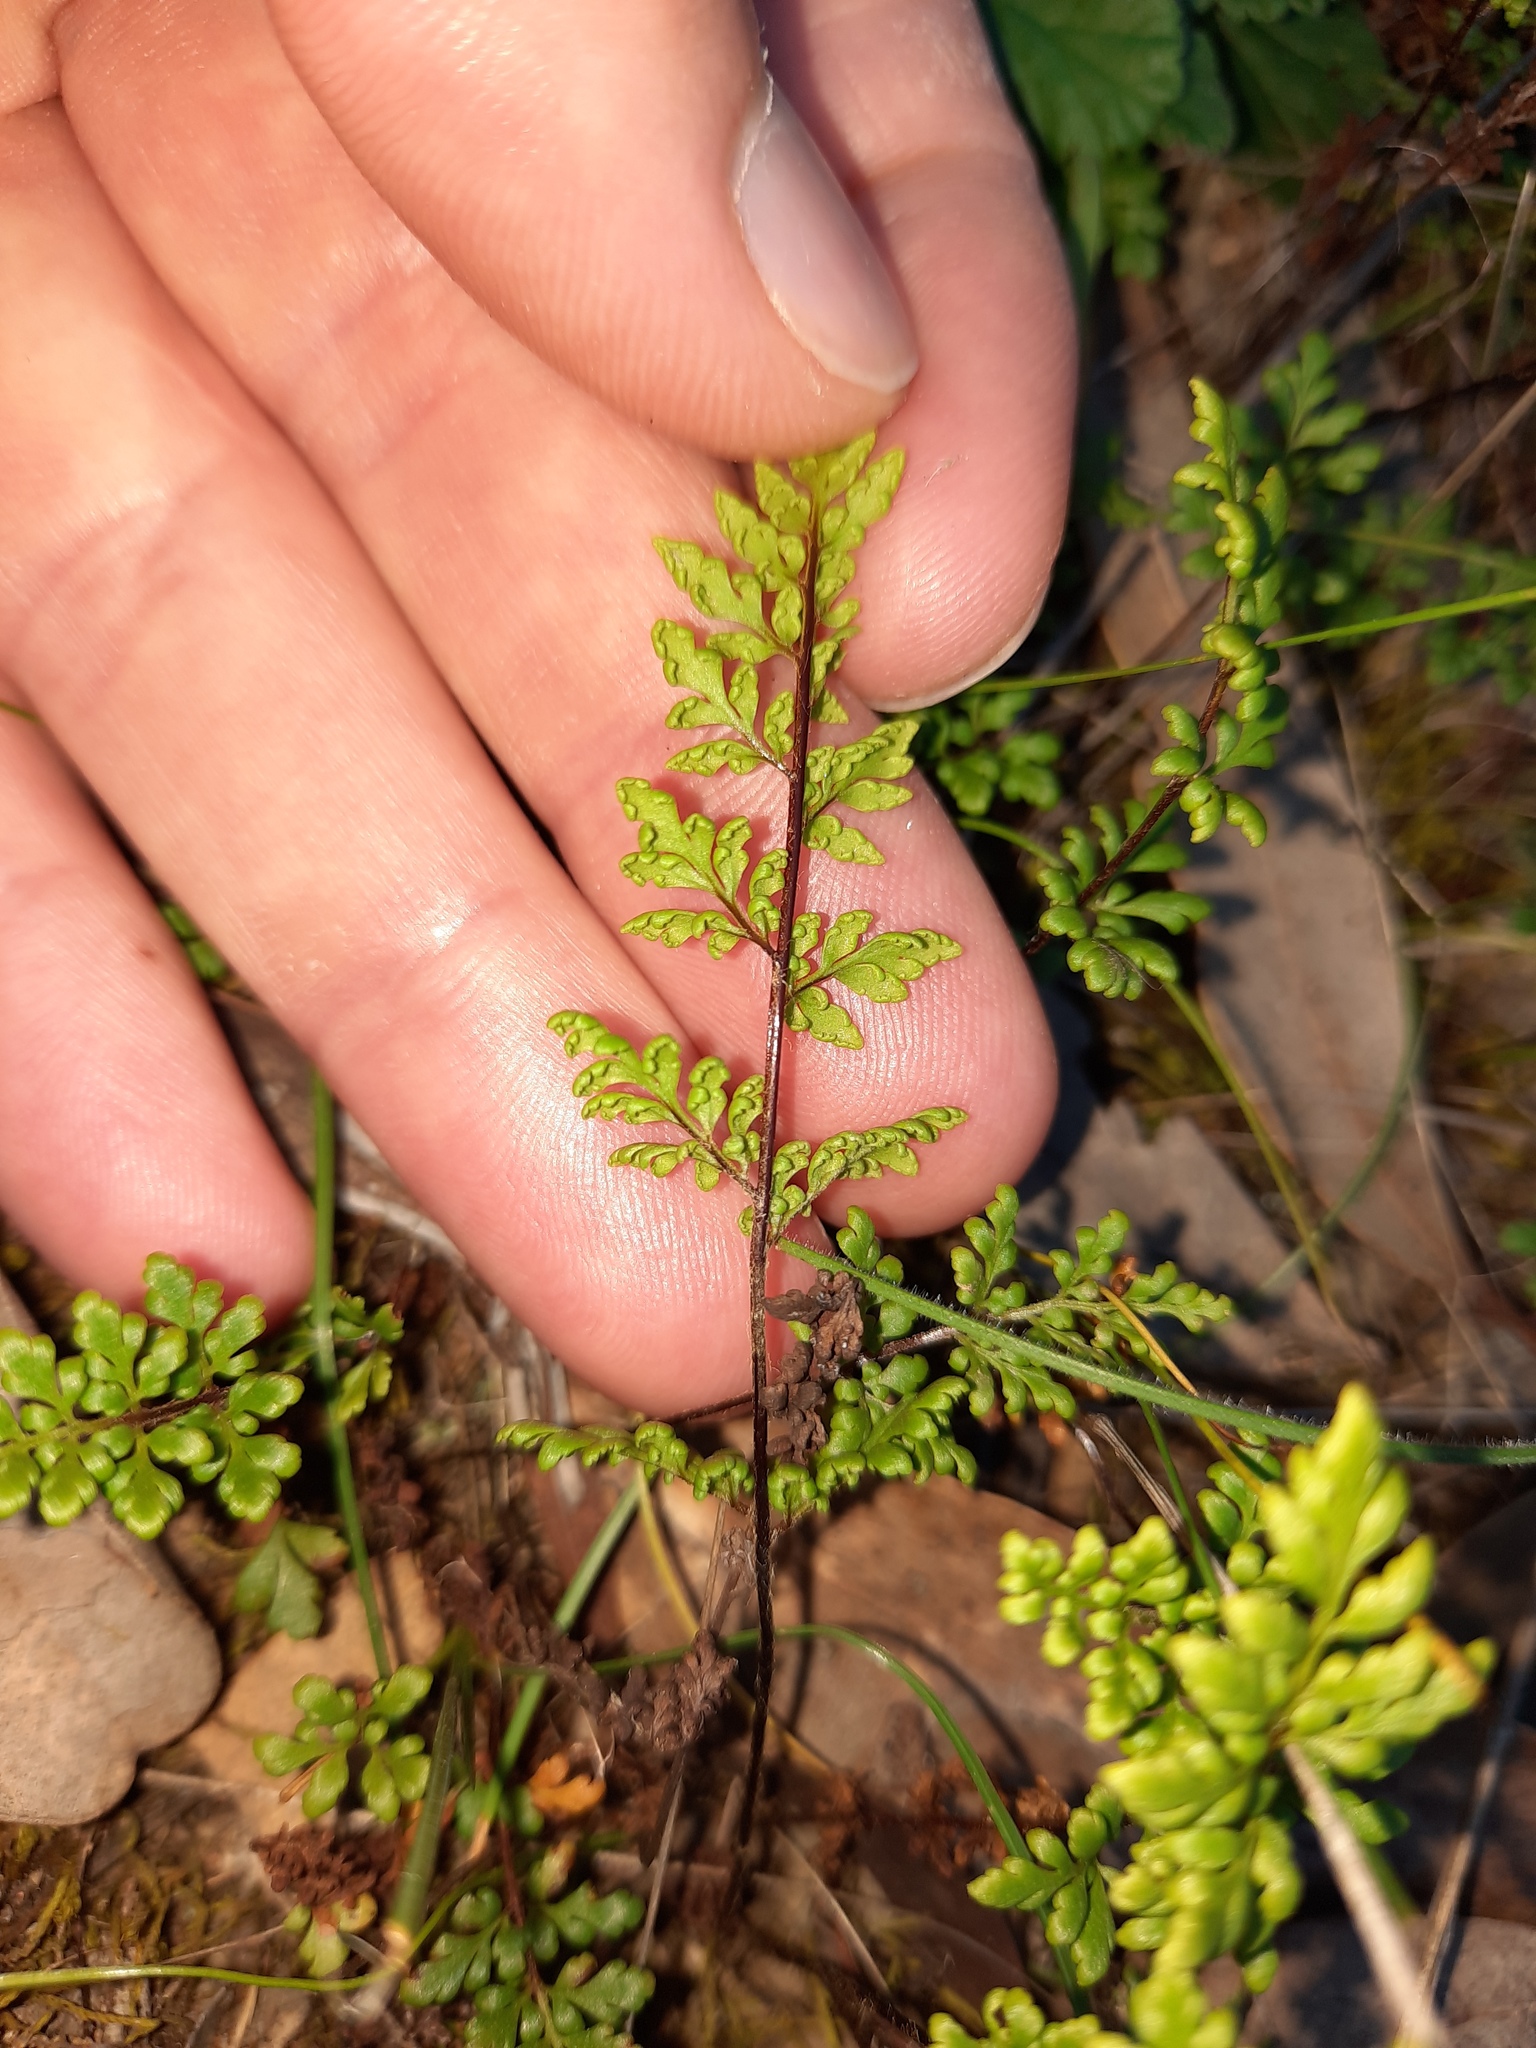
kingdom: Plantae
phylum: Tracheophyta
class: Polypodiopsida
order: Polypodiales
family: Pteridaceae
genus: Cheilanthes
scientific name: Cheilanthes sieberi
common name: Mulga fern
